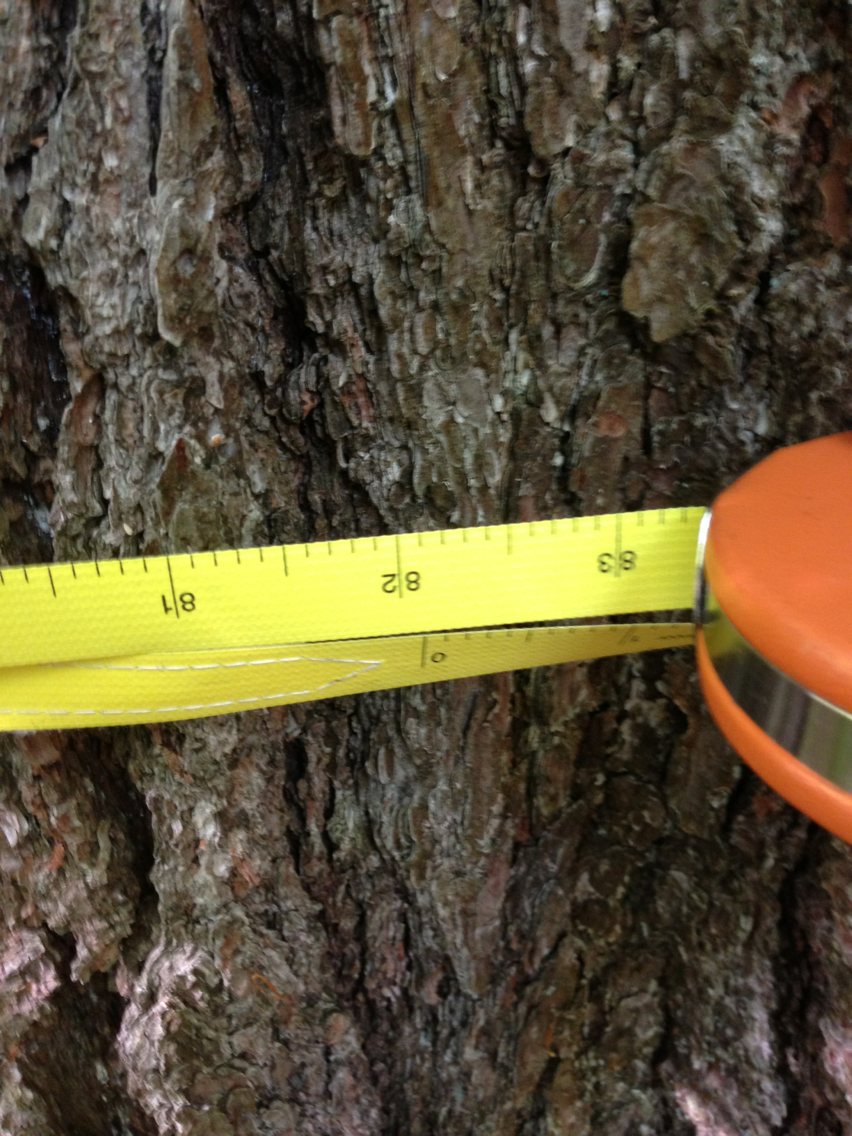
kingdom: Plantae
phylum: Tracheophyta
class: Pinopsida
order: Pinales
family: Pinaceae
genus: Pinus
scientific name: Pinus strobus
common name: Weymouth pine
